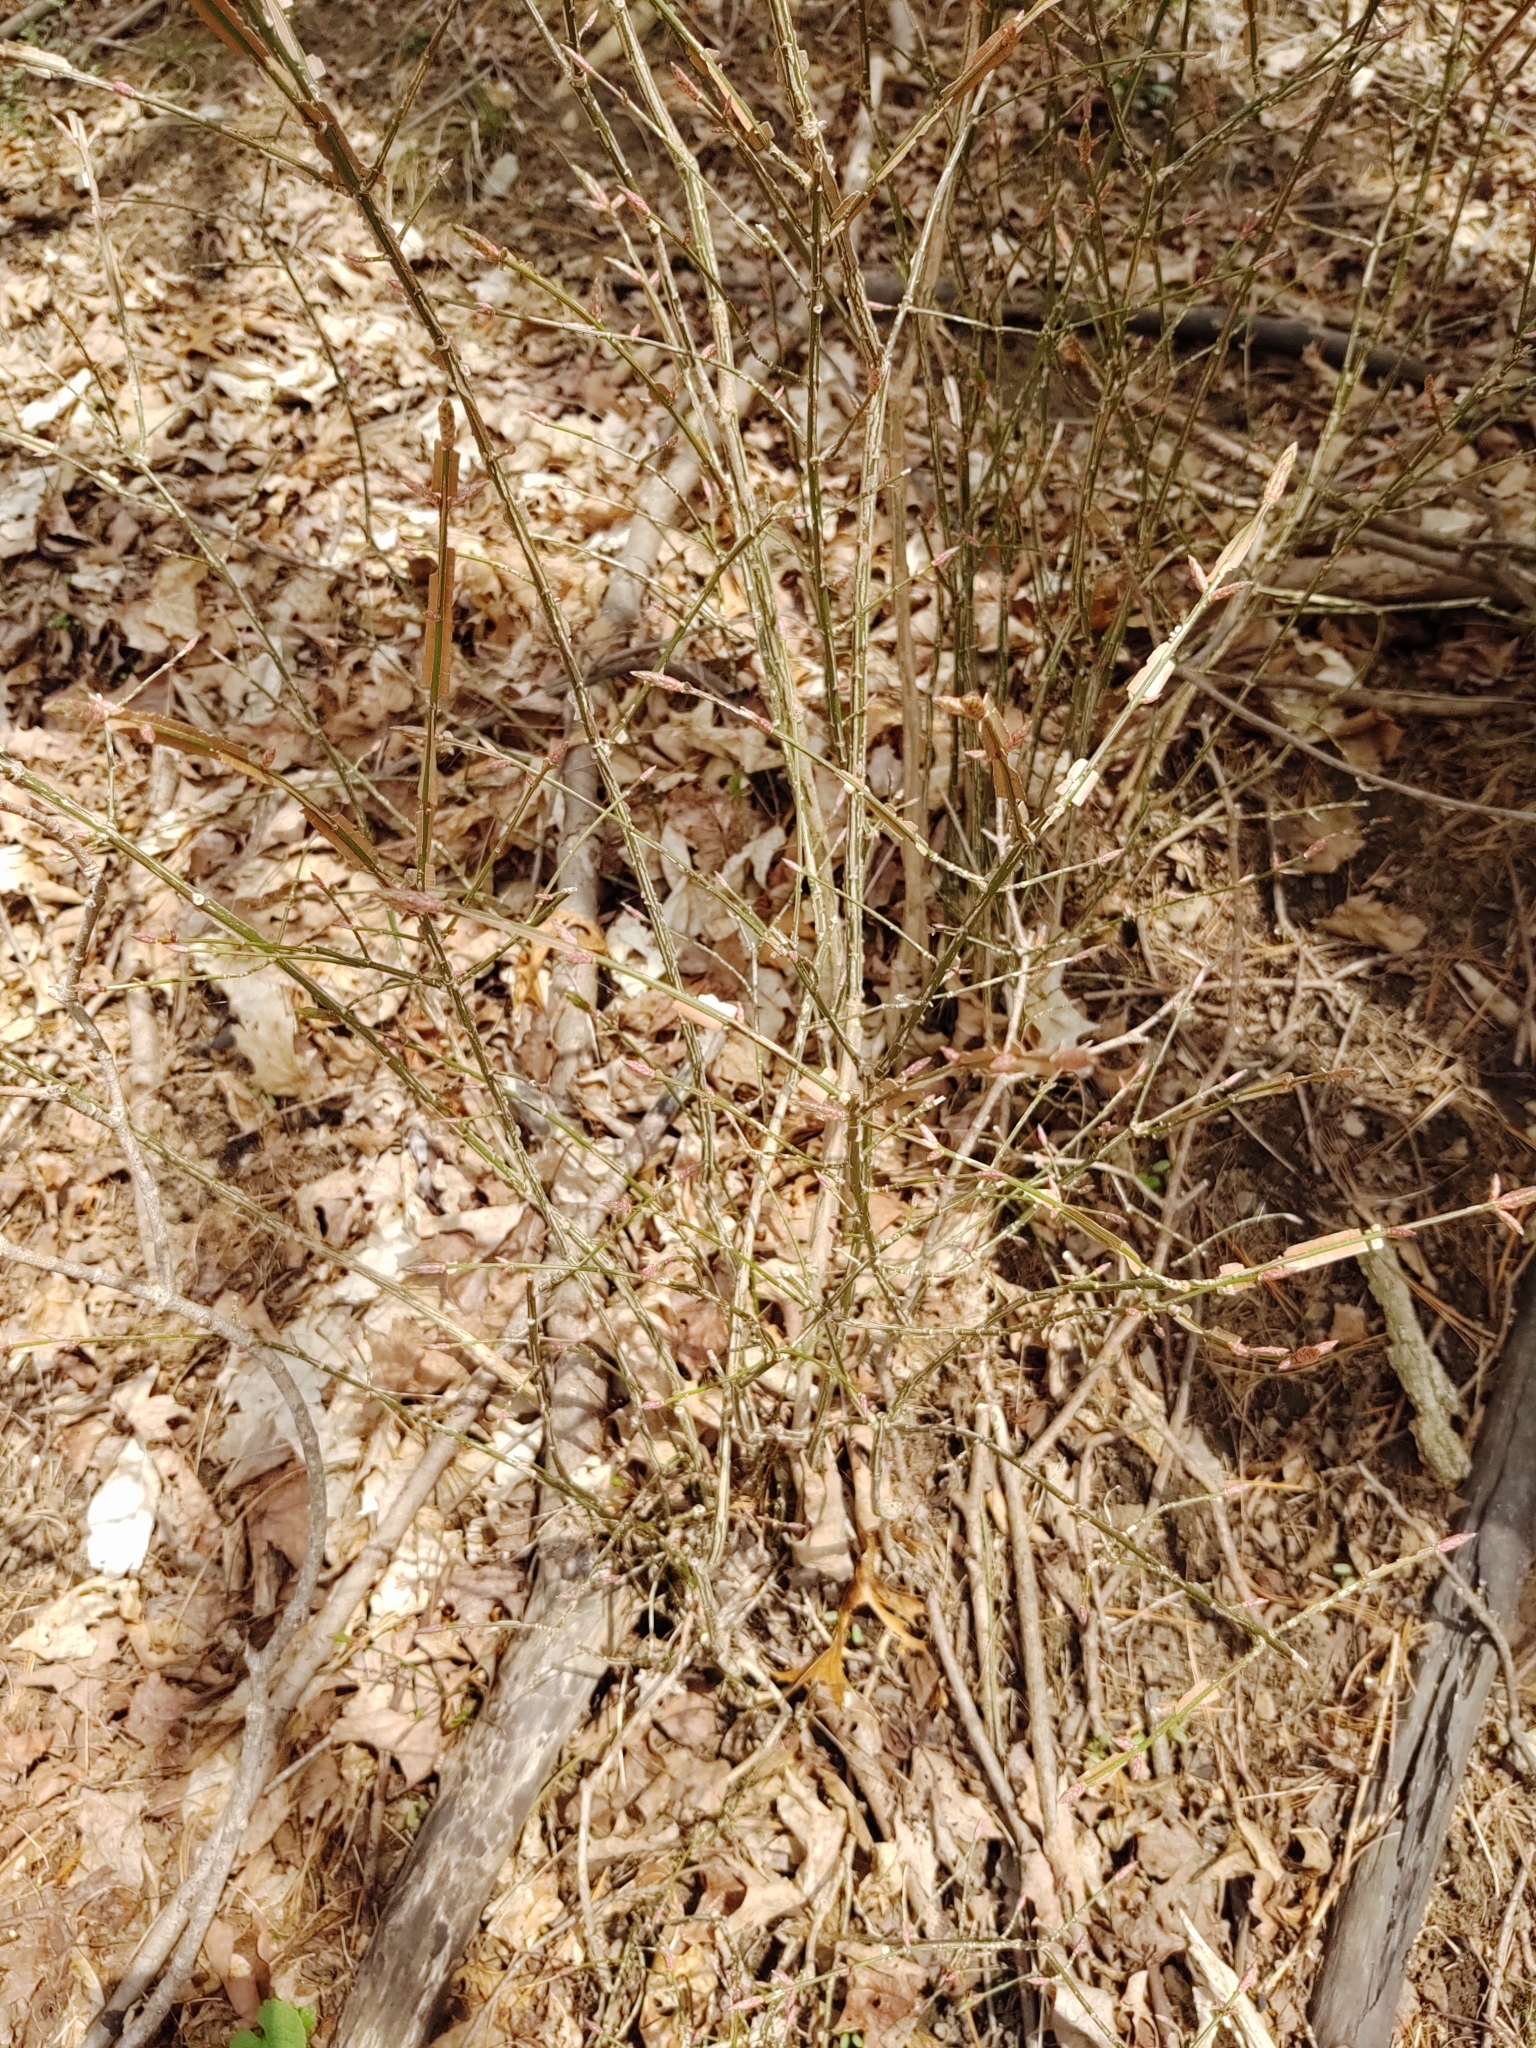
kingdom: Plantae
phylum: Tracheophyta
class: Magnoliopsida
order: Celastrales
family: Celastraceae
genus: Euonymus
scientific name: Euonymus alatus
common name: Winged euonymus
